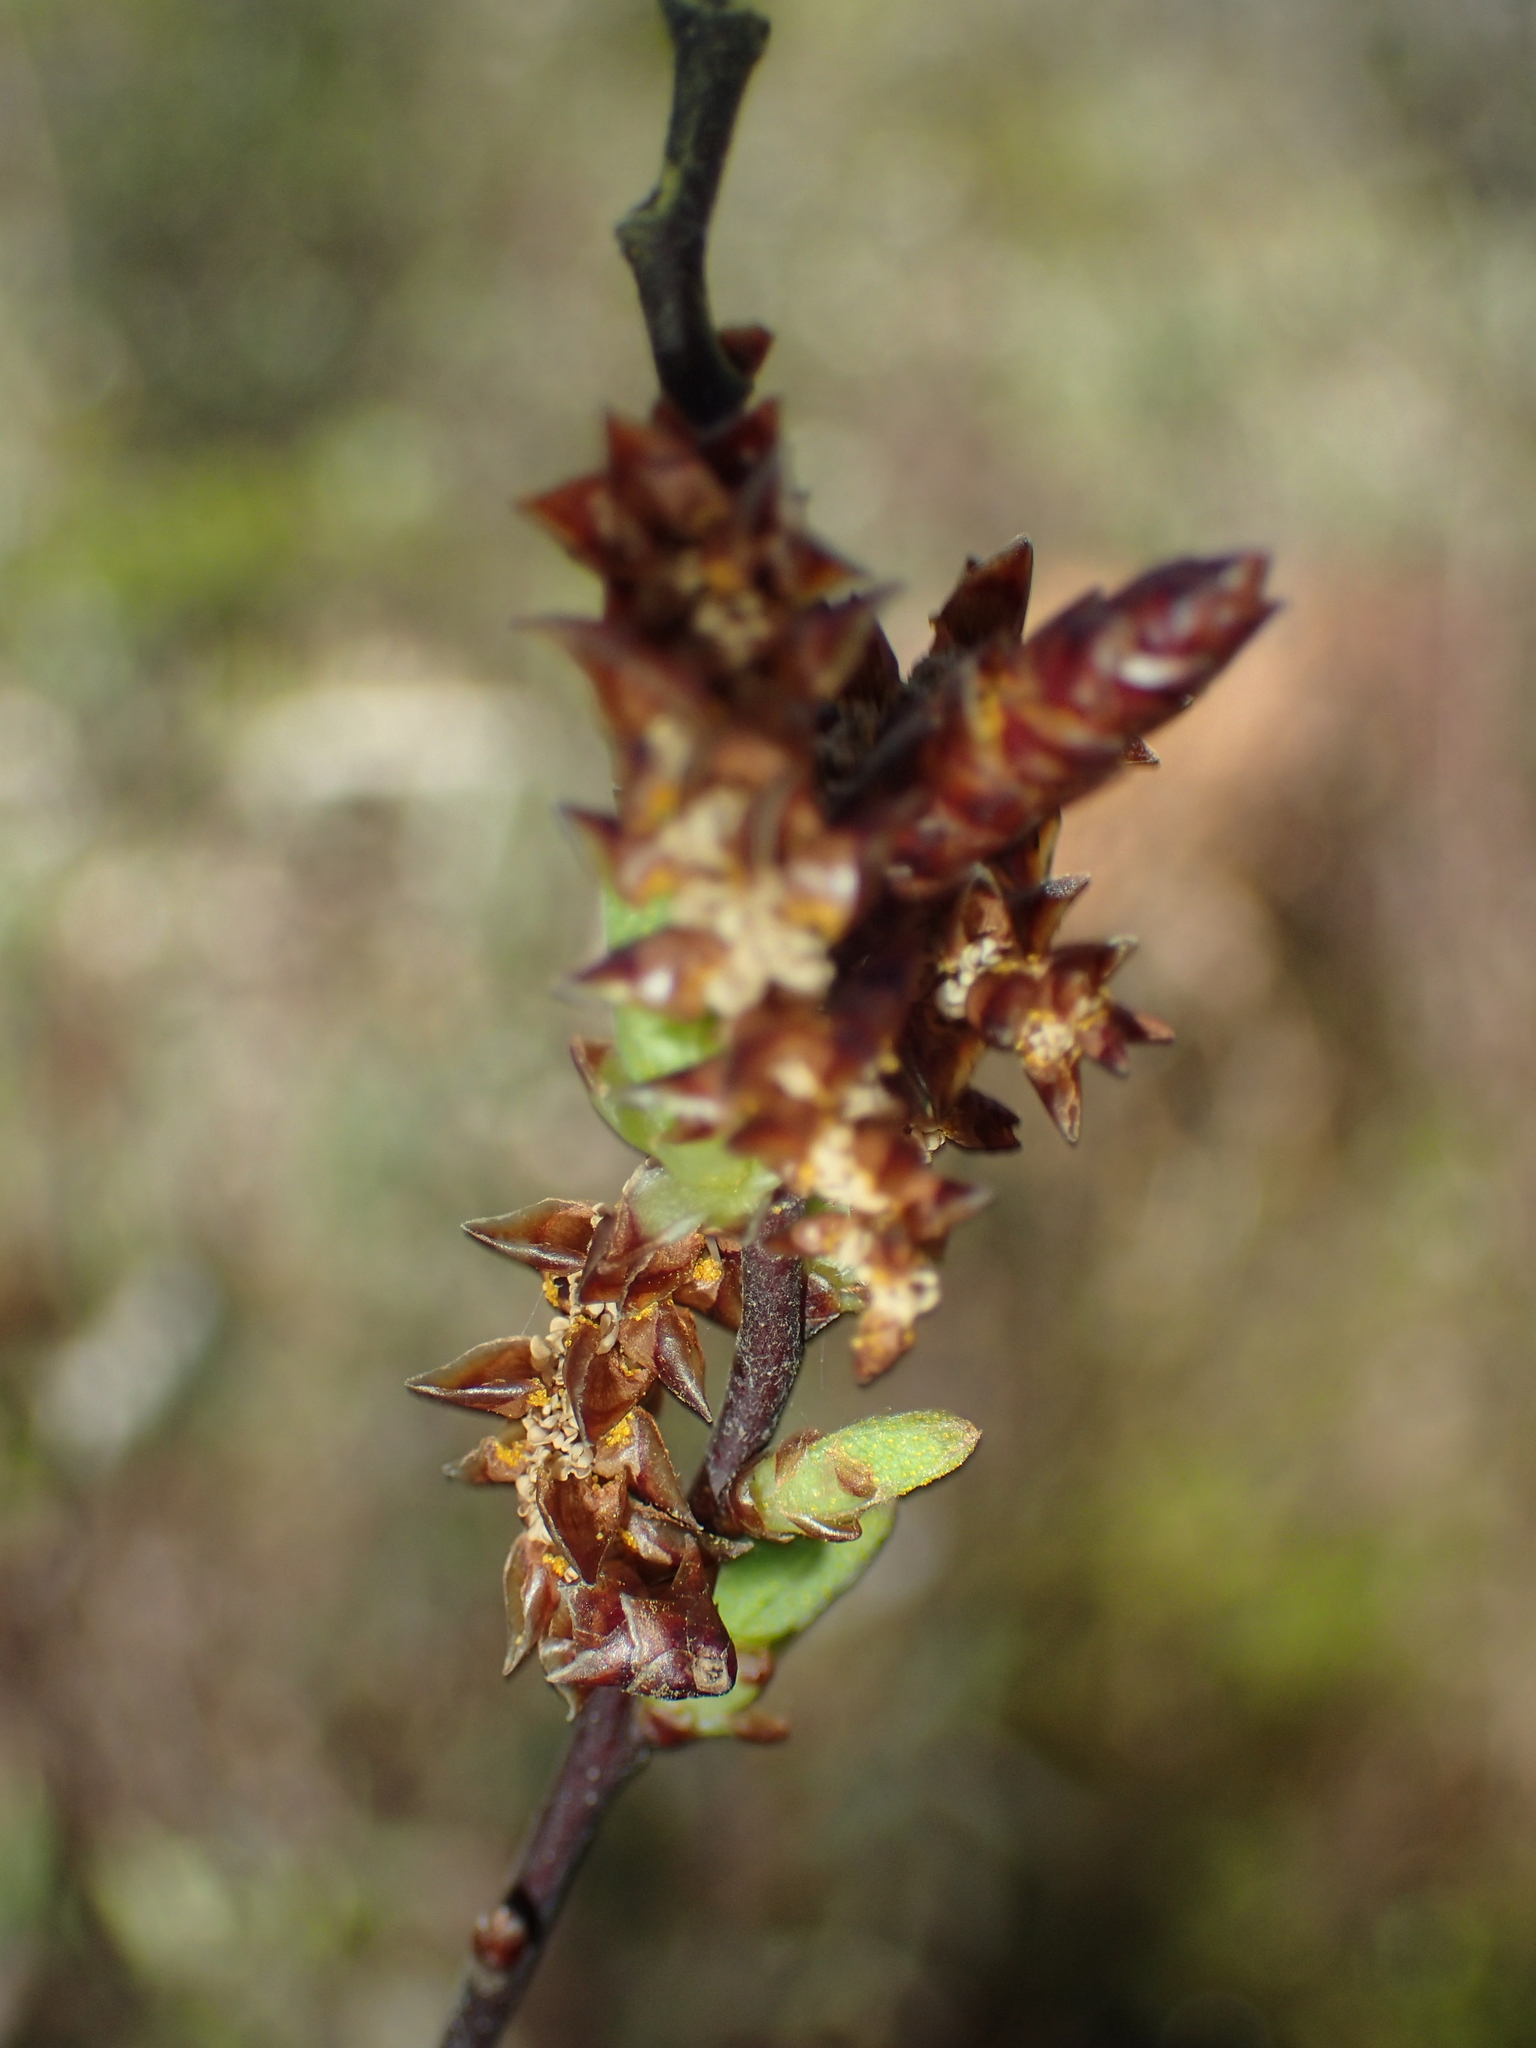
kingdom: Plantae
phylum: Tracheophyta
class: Magnoliopsida
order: Fagales
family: Myricaceae
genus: Myrica
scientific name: Myrica gale
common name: Sweet gale
